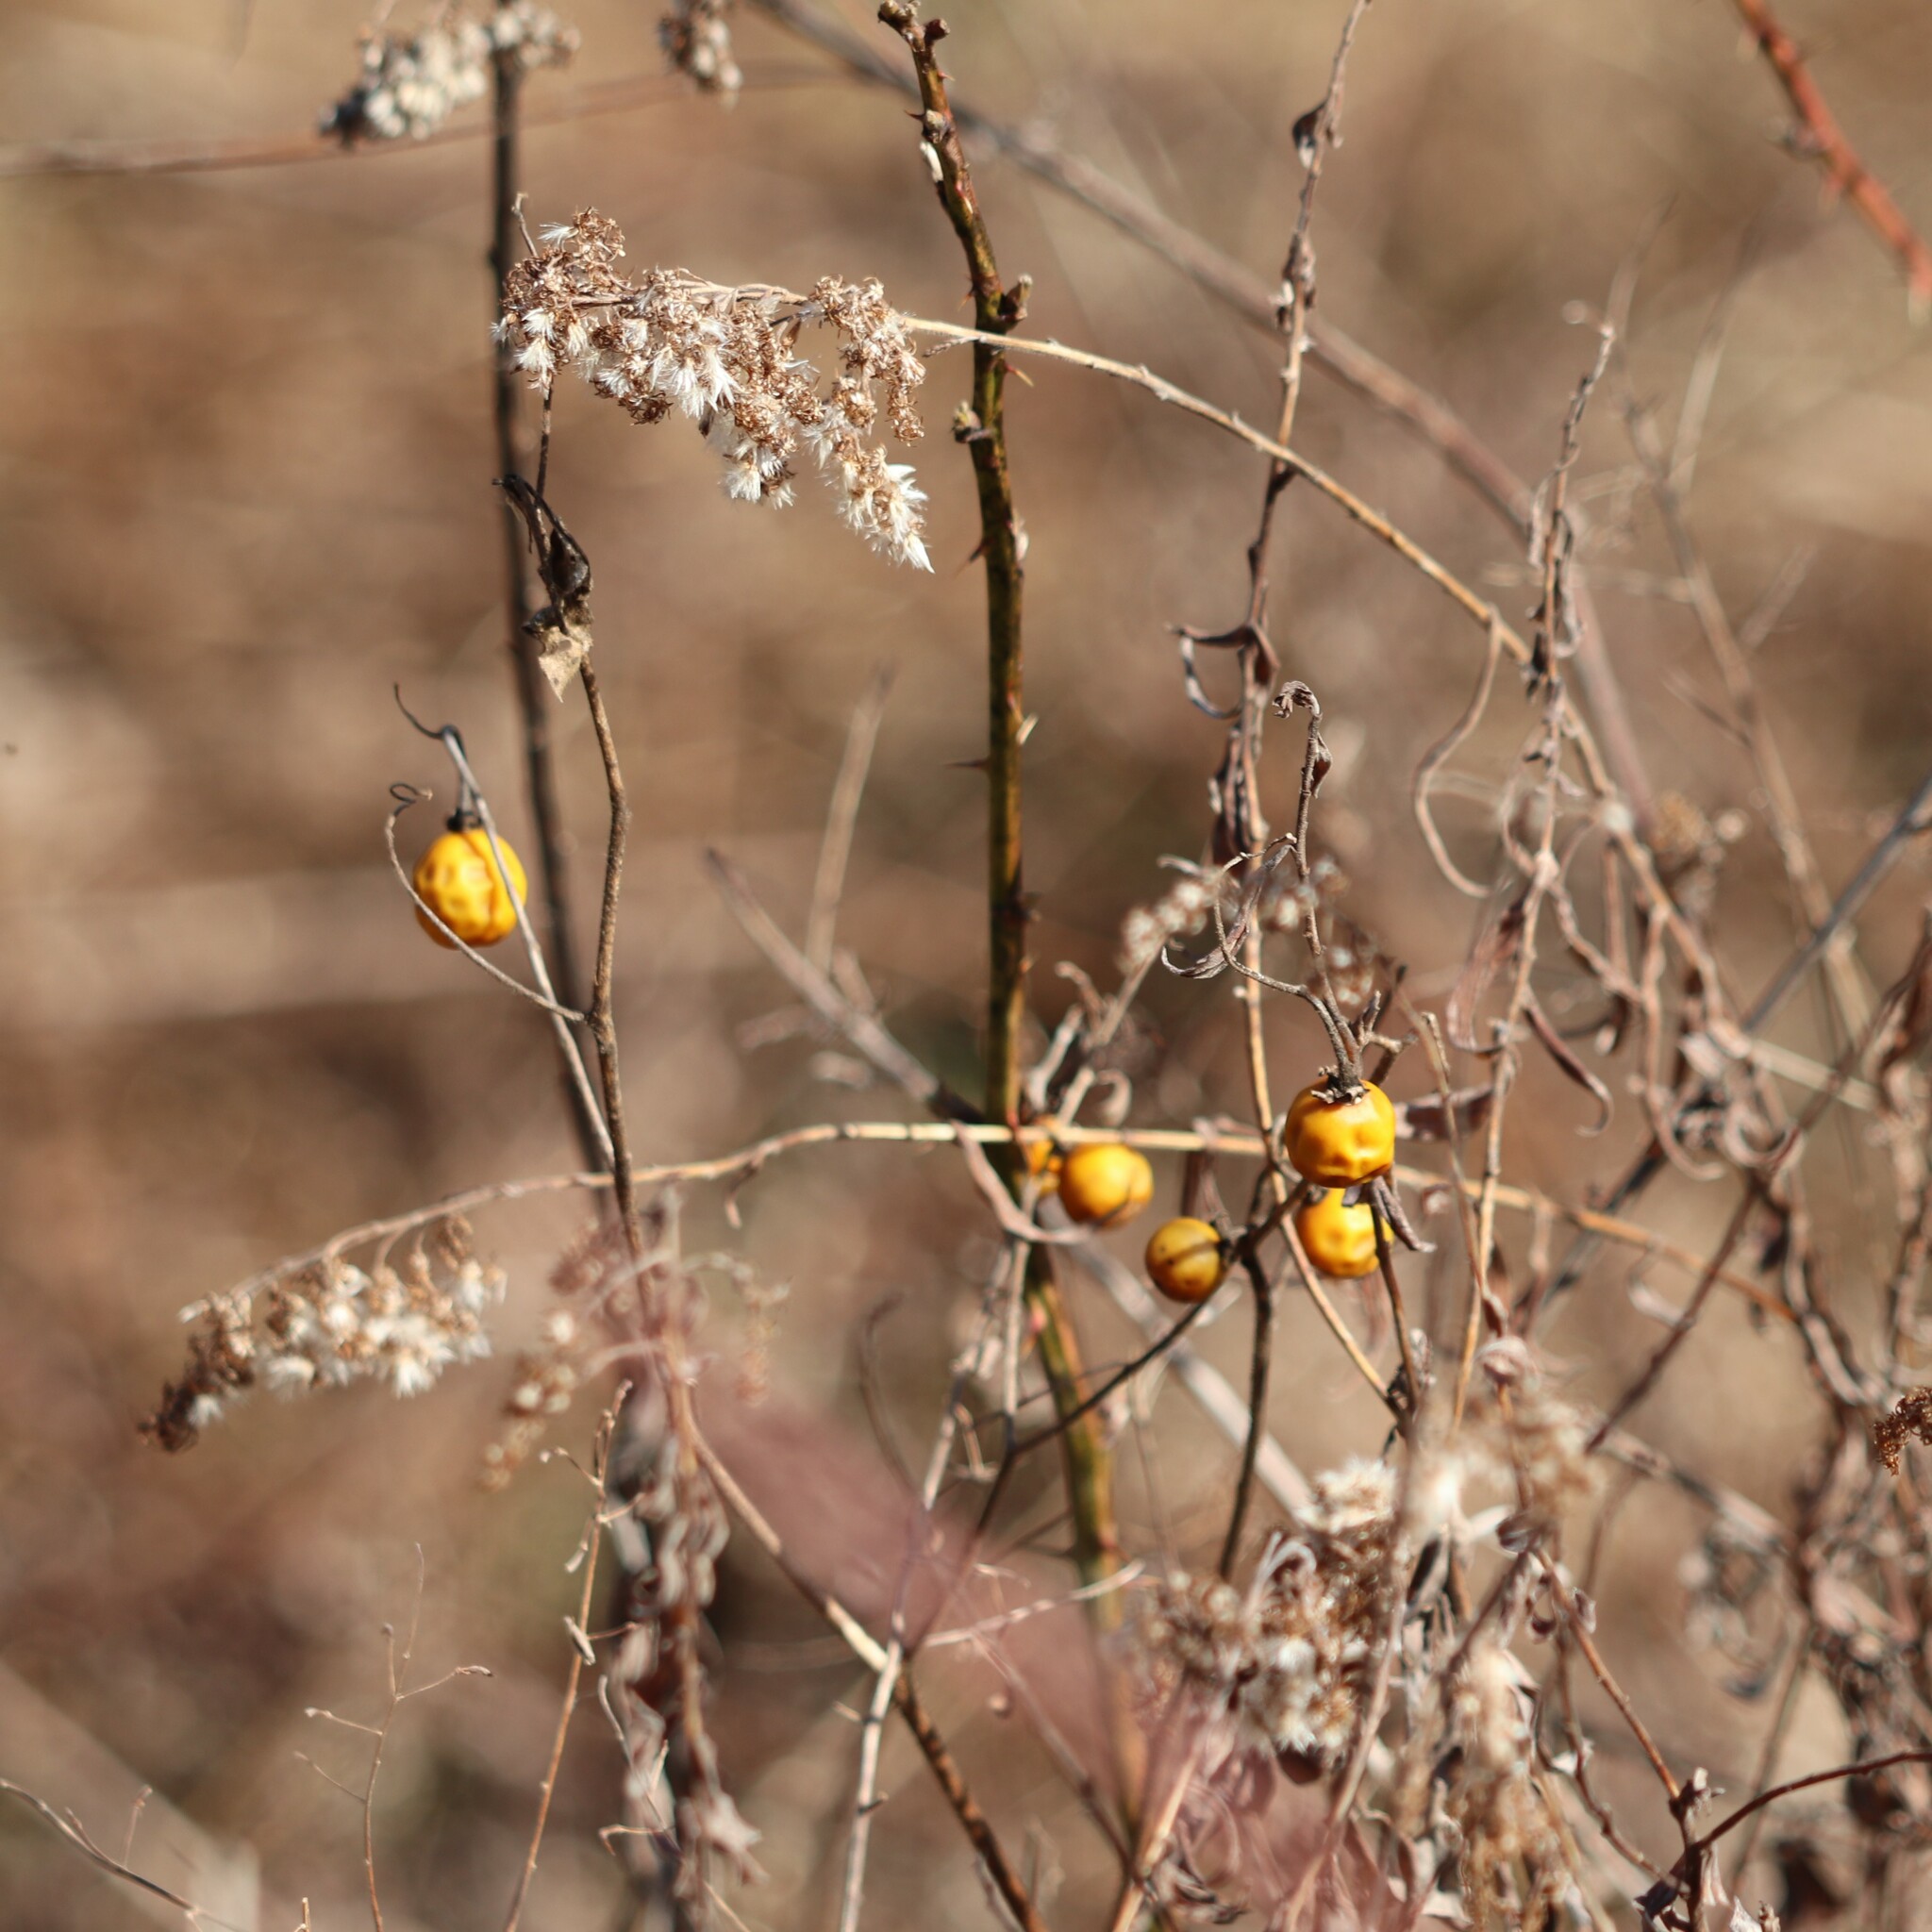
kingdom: Plantae
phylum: Tracheophyta
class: Magnoliopsida
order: Solanales
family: Solanaceae
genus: Solanum
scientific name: Solanum carolinense
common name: Horse-nettle
